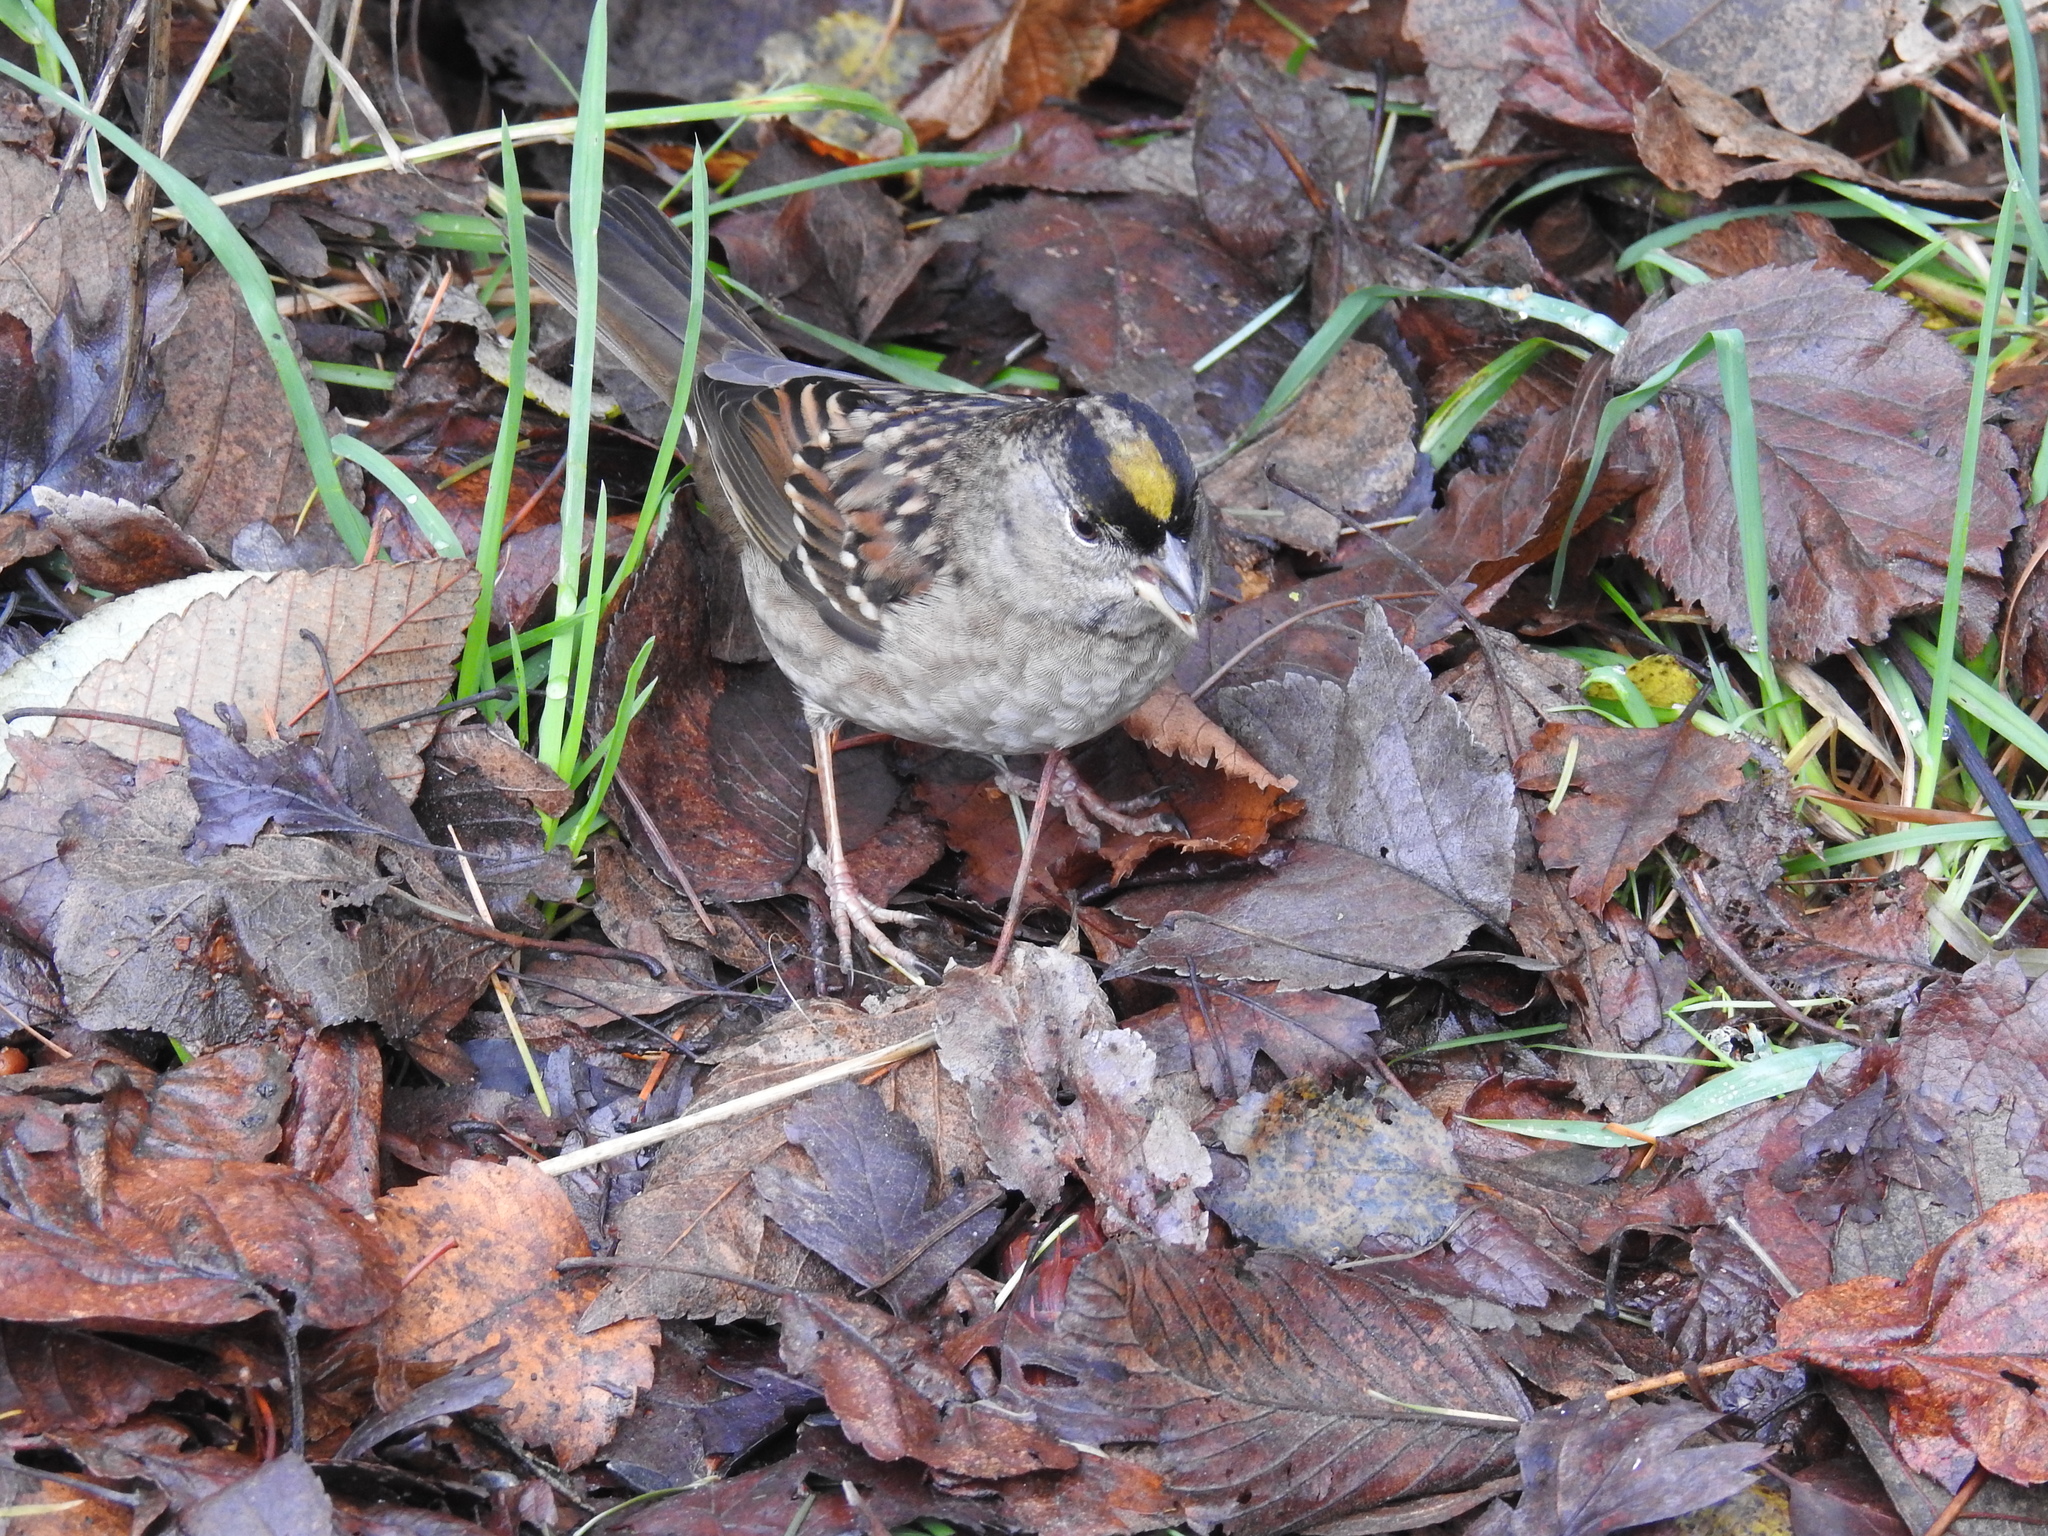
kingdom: Animalia
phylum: Chordata
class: Aves
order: Passeriformes
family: Passerellidae
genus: Zonotrichia
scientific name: Zonotrichia atricapilla
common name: Golden-crowned sparrow
